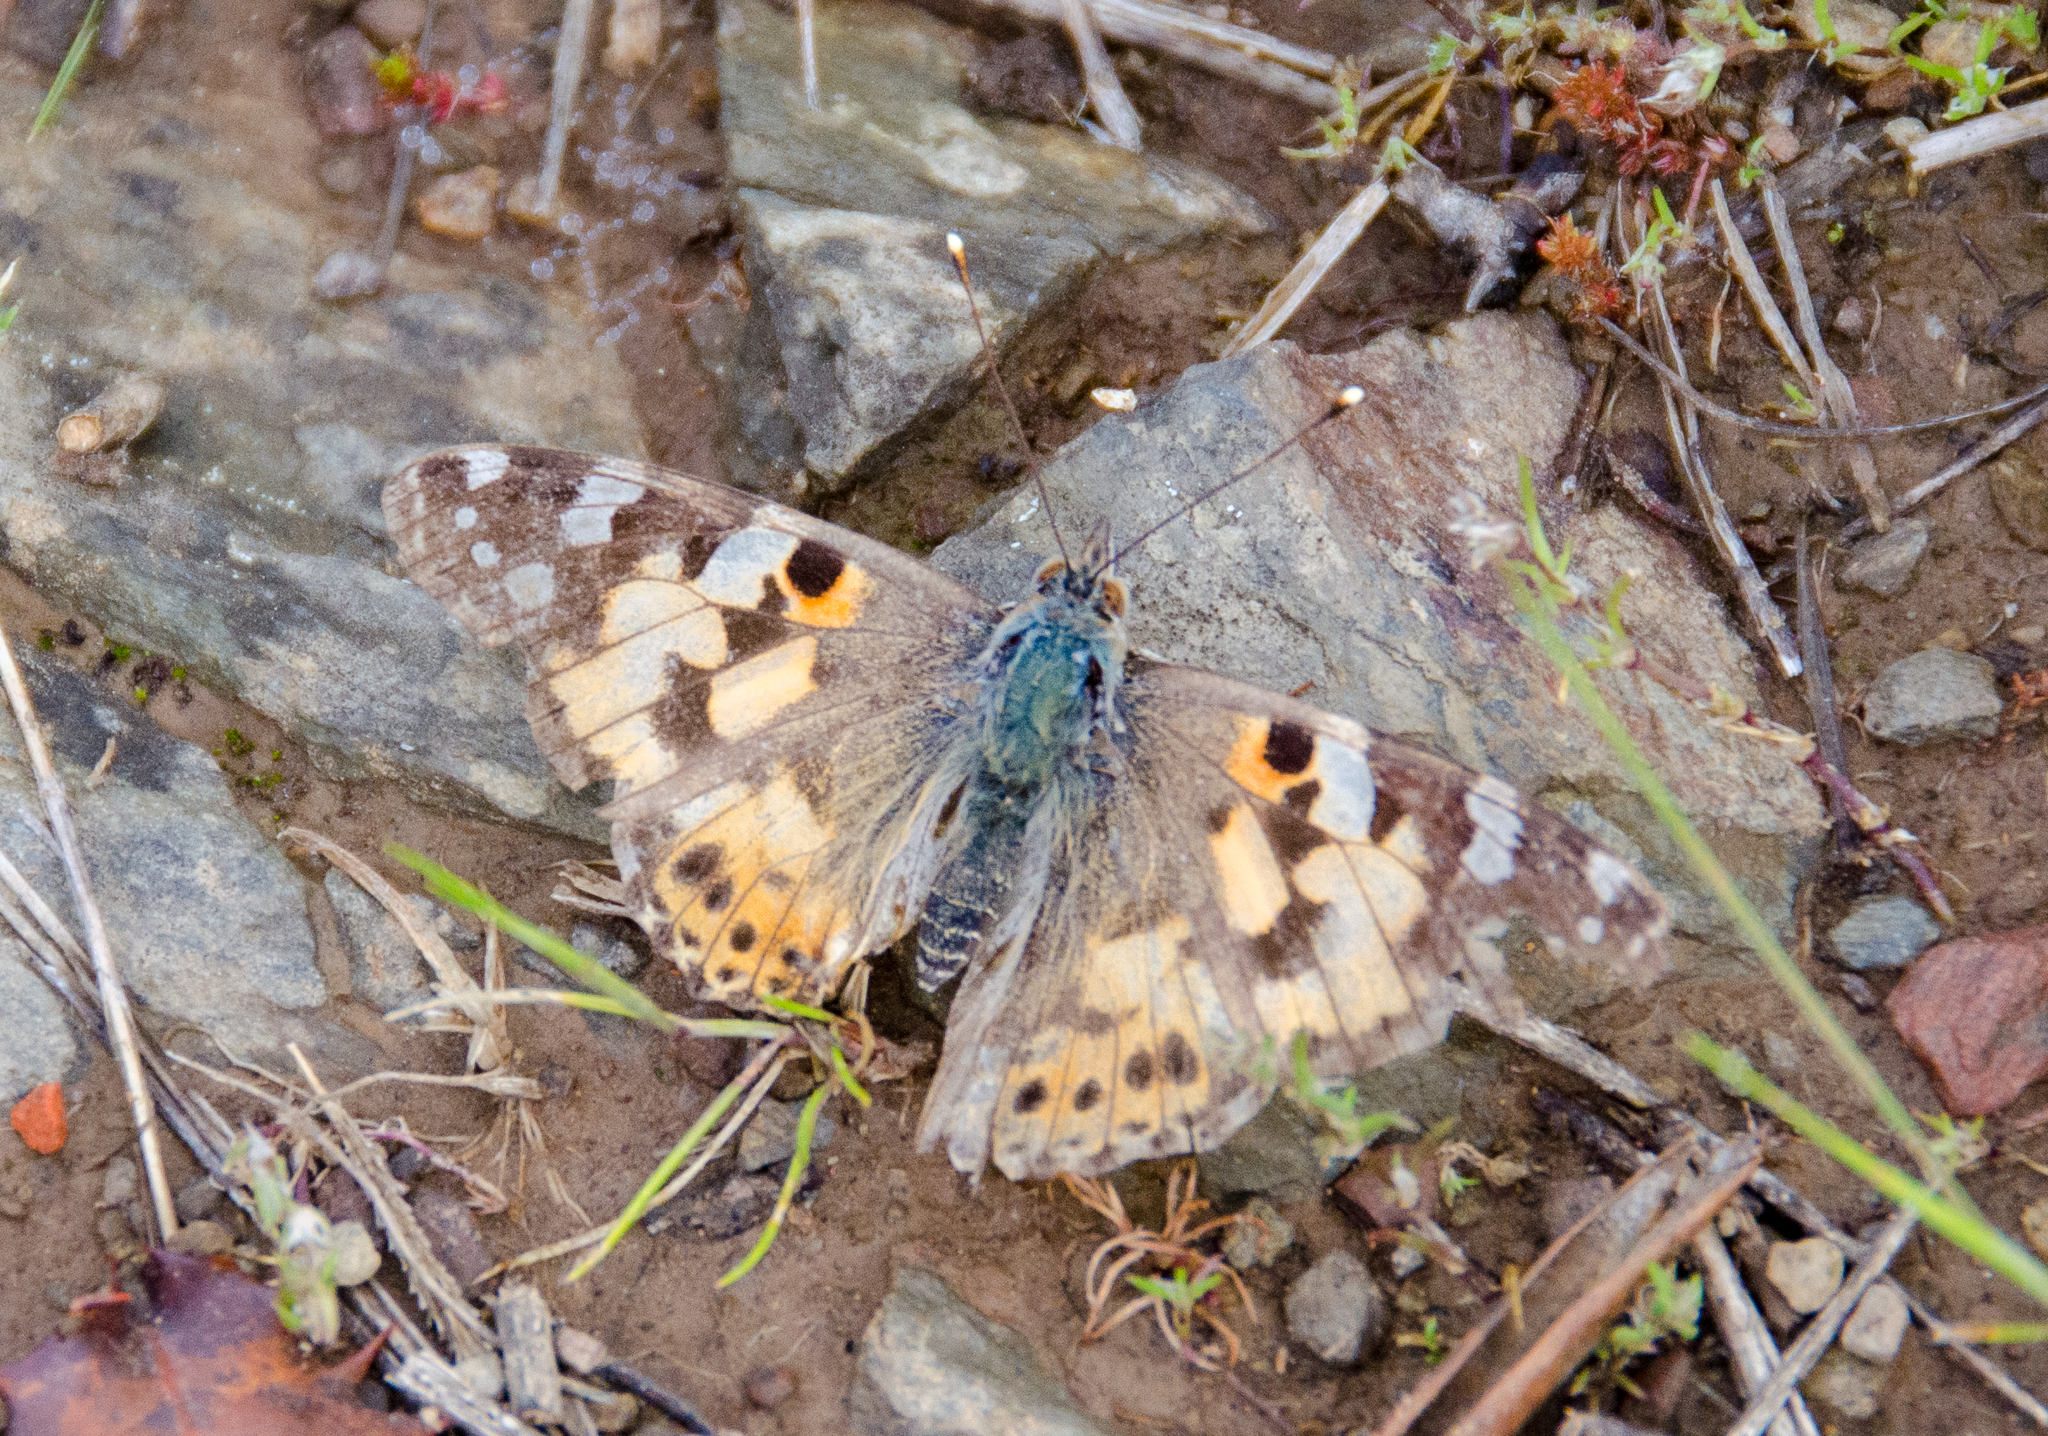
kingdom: Animalia
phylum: Arthropoda
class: Insecta
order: Lepidoptera
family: Nymphalidae
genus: Vanessa
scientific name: Vanessa cardui
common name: Painted lady
